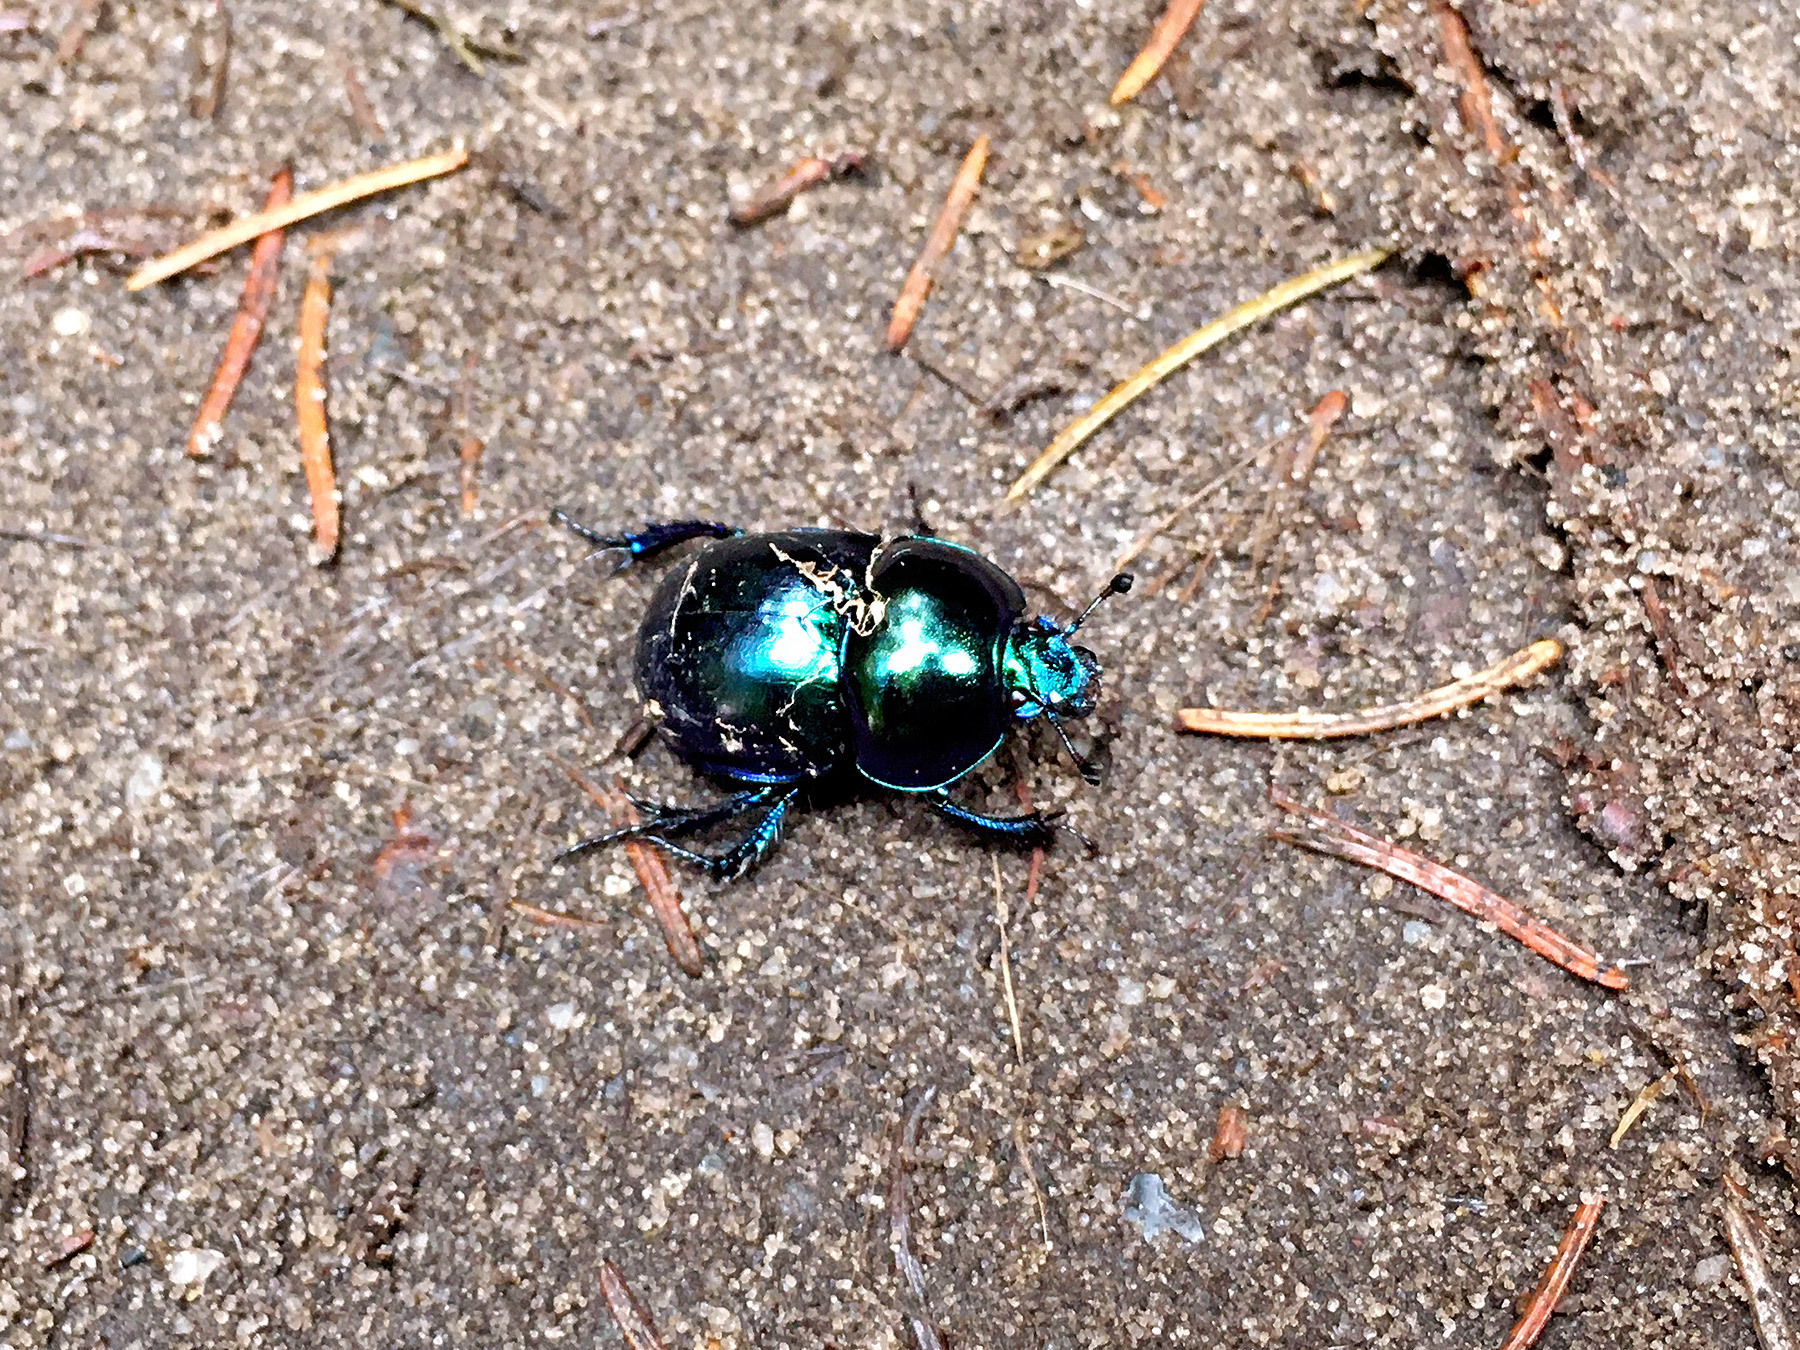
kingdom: Animalia
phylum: Arthropoda
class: Insecta
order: Coleoptera
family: Geotrupidae
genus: Trypocopris
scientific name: Trypocopris vernalis
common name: Spring dumbledor
